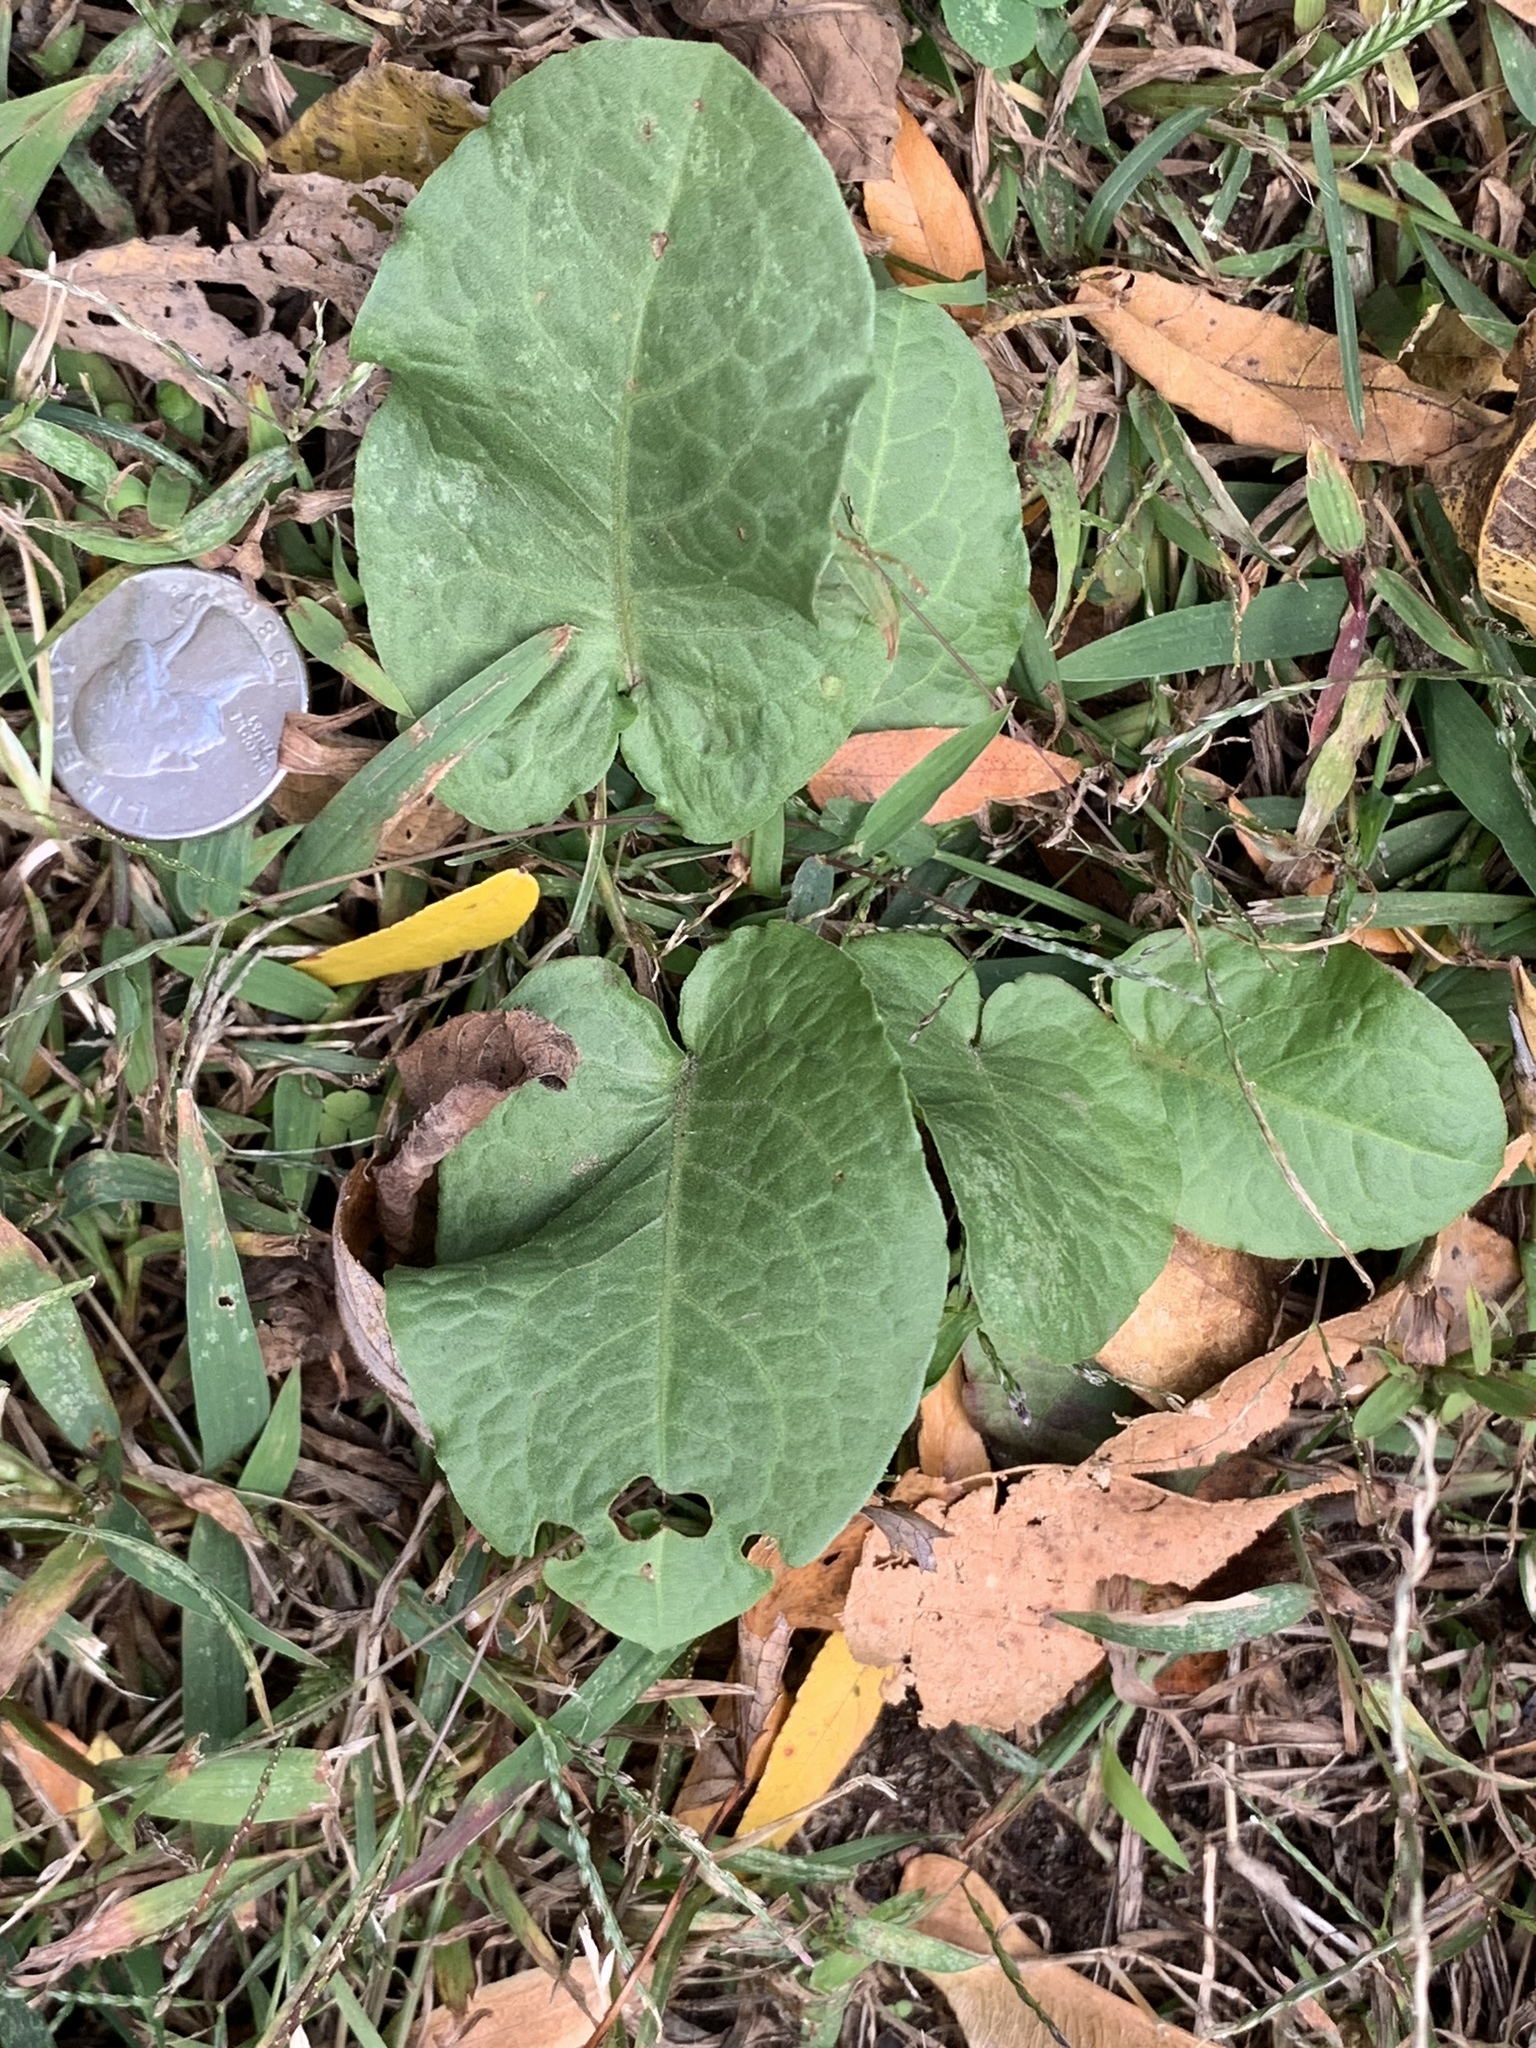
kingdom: Plantae
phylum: Tracheophyta
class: Magnoliopsida
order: Caryophyllales
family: Polygonaceae
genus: Rumex
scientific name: Rumex obtusifolius
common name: Bitter dock
